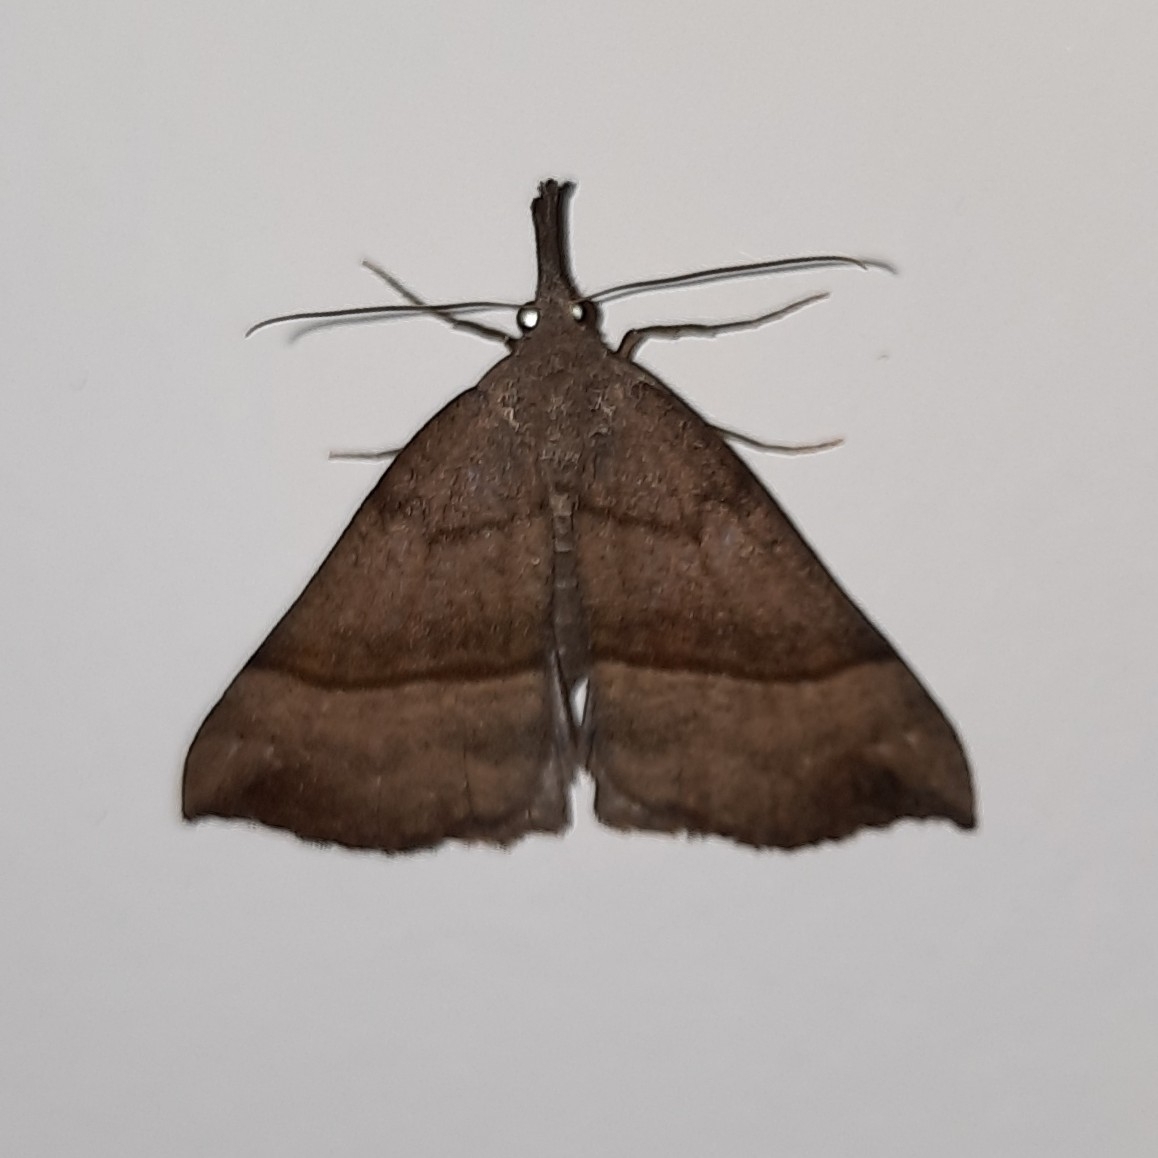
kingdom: Animalia
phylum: Arthropoda
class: Insecta
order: Lepidoptera
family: Erebidae
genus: Hypena
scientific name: Hypena proboscidalis
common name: Snout
